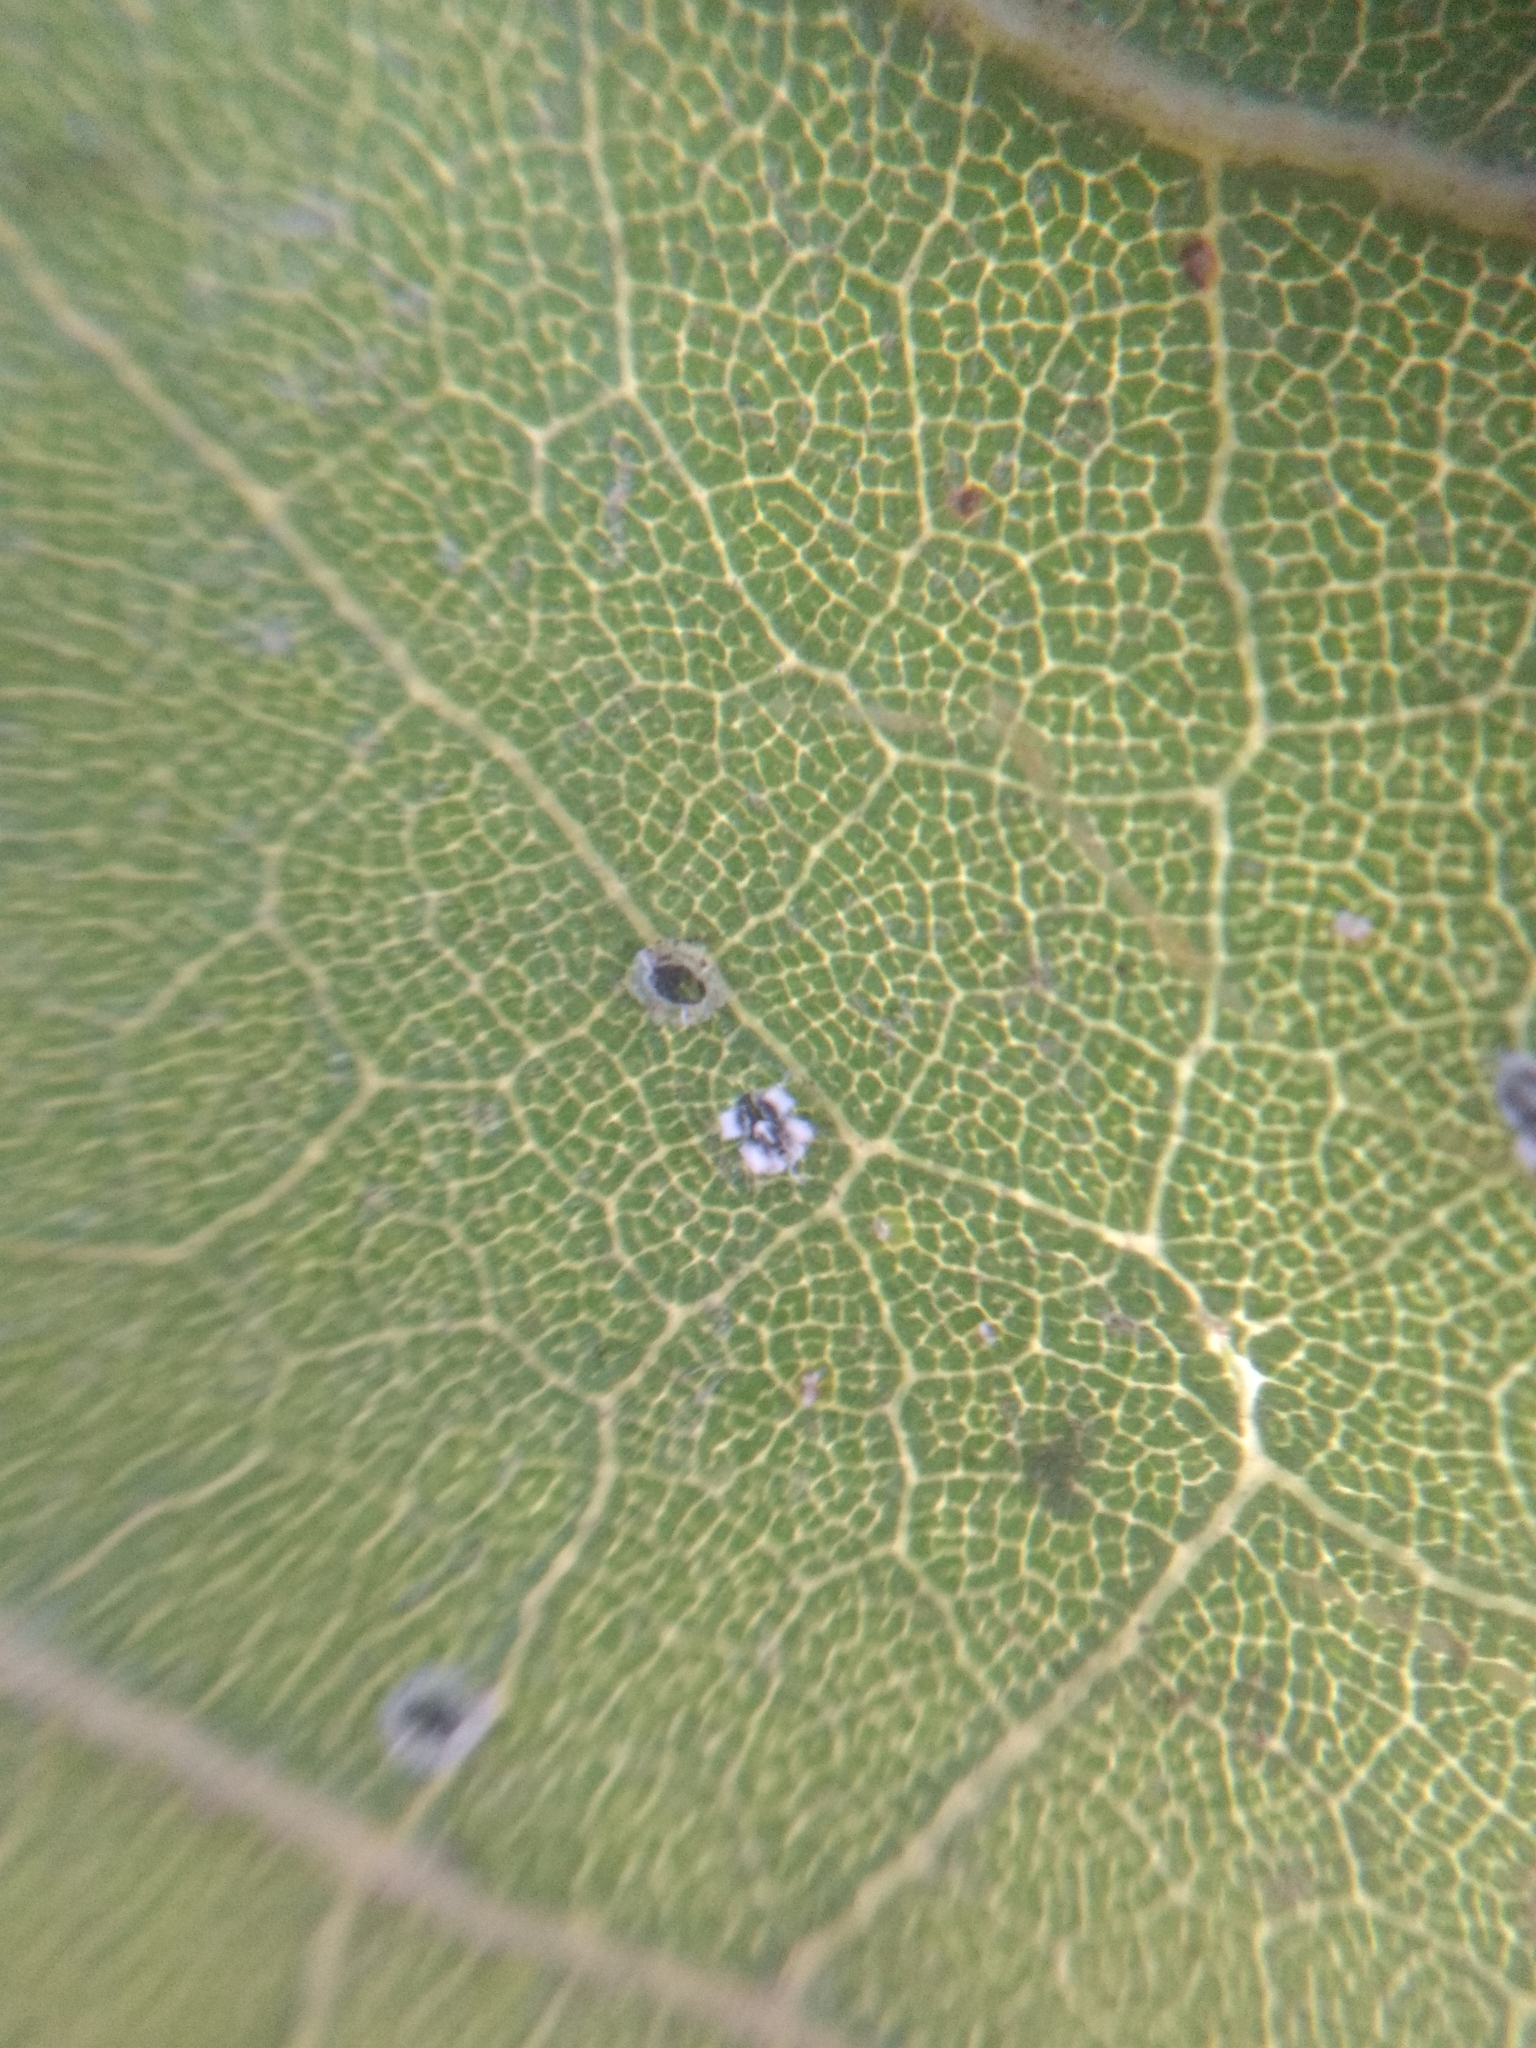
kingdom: Animalia
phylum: Arthropoda
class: Insecta
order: Hemiptera
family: Aleyrodidae
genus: Aleuroplatus
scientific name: Aleuroplatus coronata
